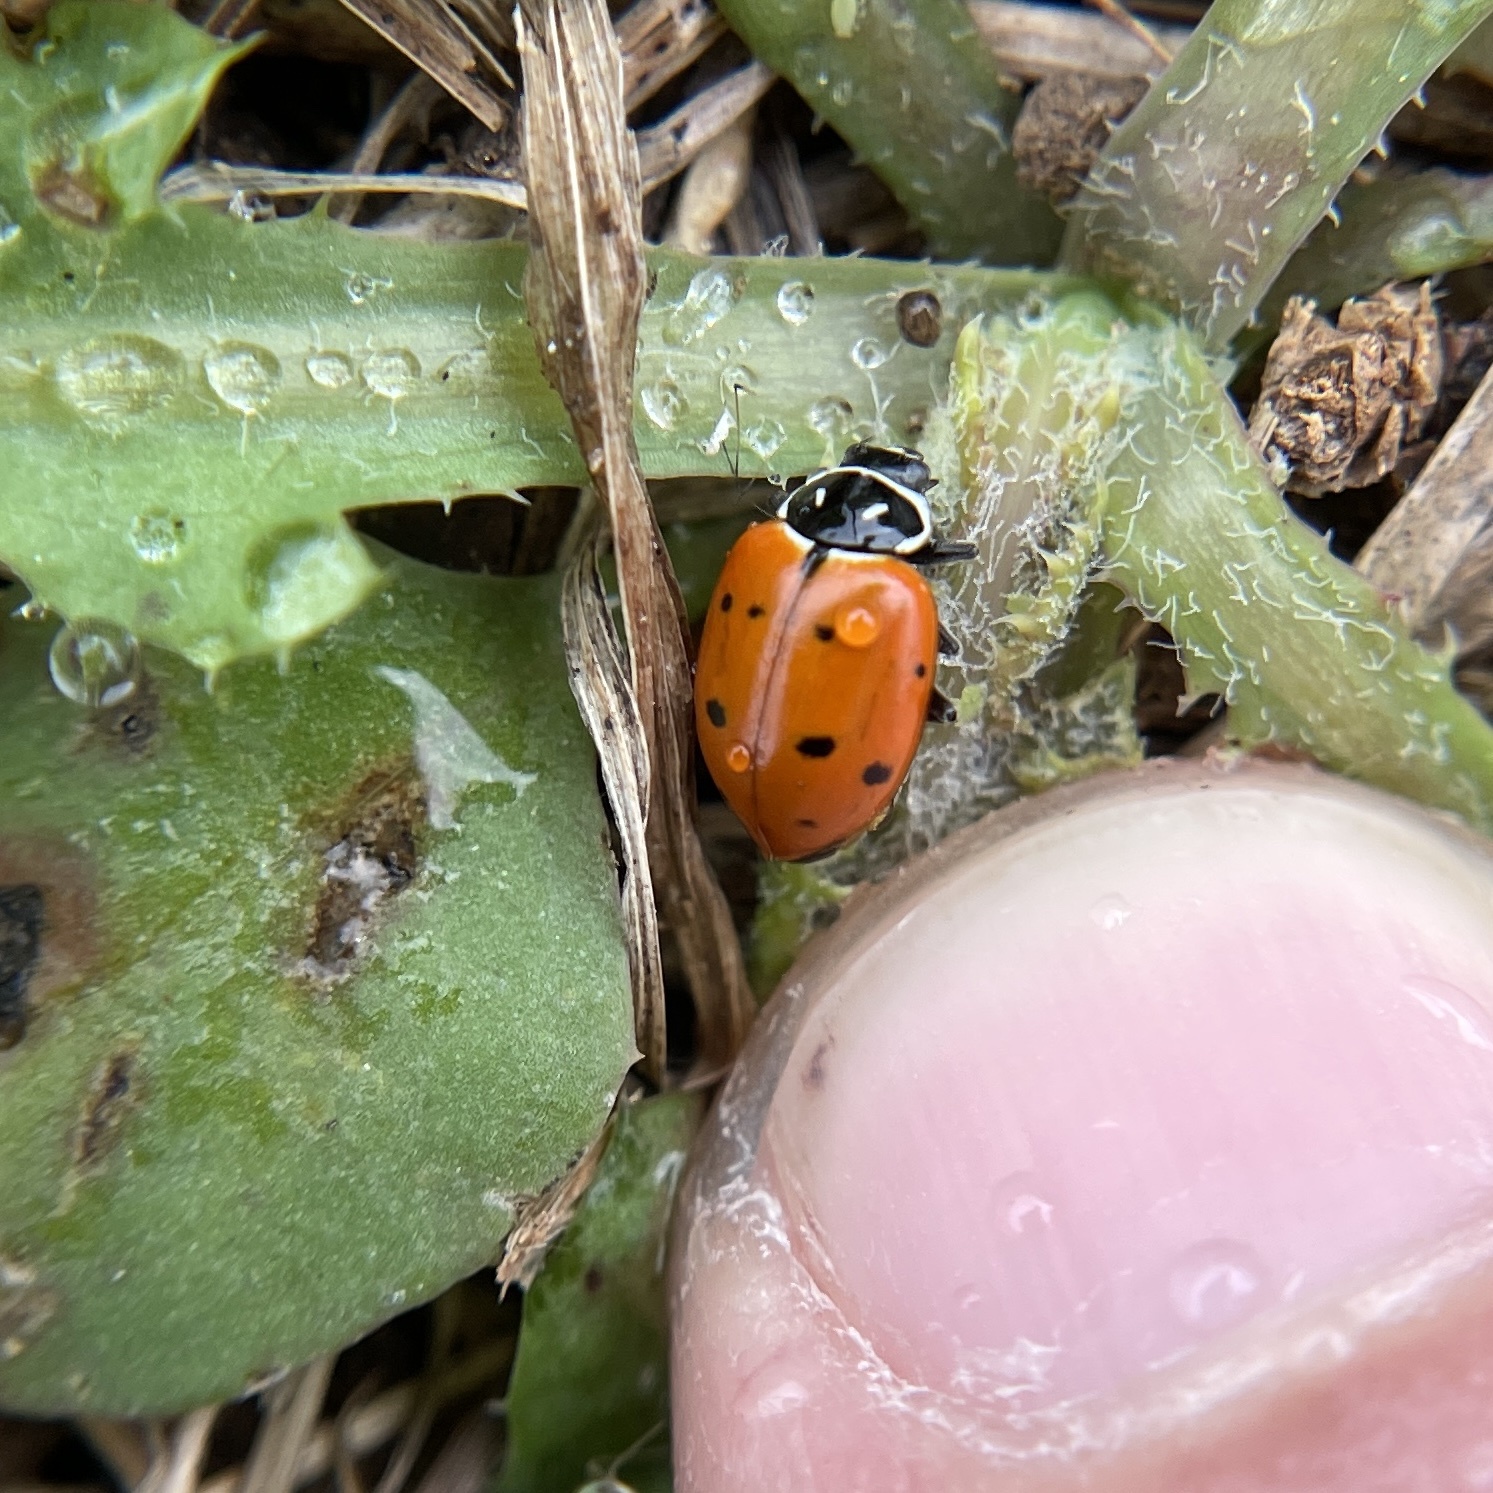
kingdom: Animalia
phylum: Arthropoda
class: Insecta
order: Coleoptera
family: Coccinellidae
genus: Hippodamia
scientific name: Hippodamia convergens
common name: Convergent lady beetle
